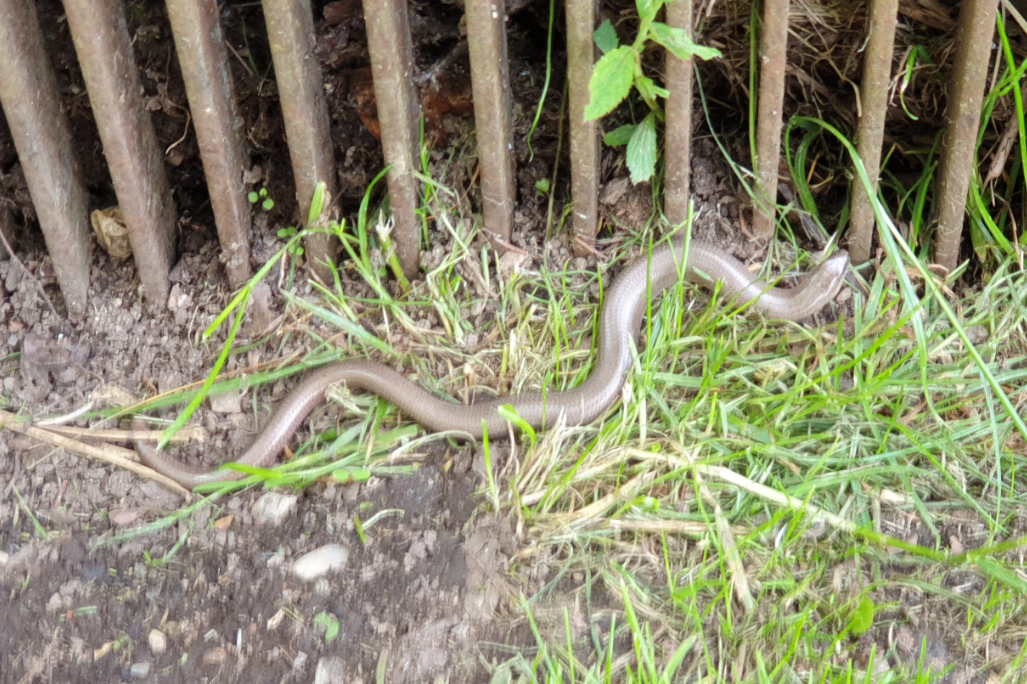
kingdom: Animalia
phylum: Chordata
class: Squamata
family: Anguidae
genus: Anguis
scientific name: Anguis fragilis
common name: Slow worm
